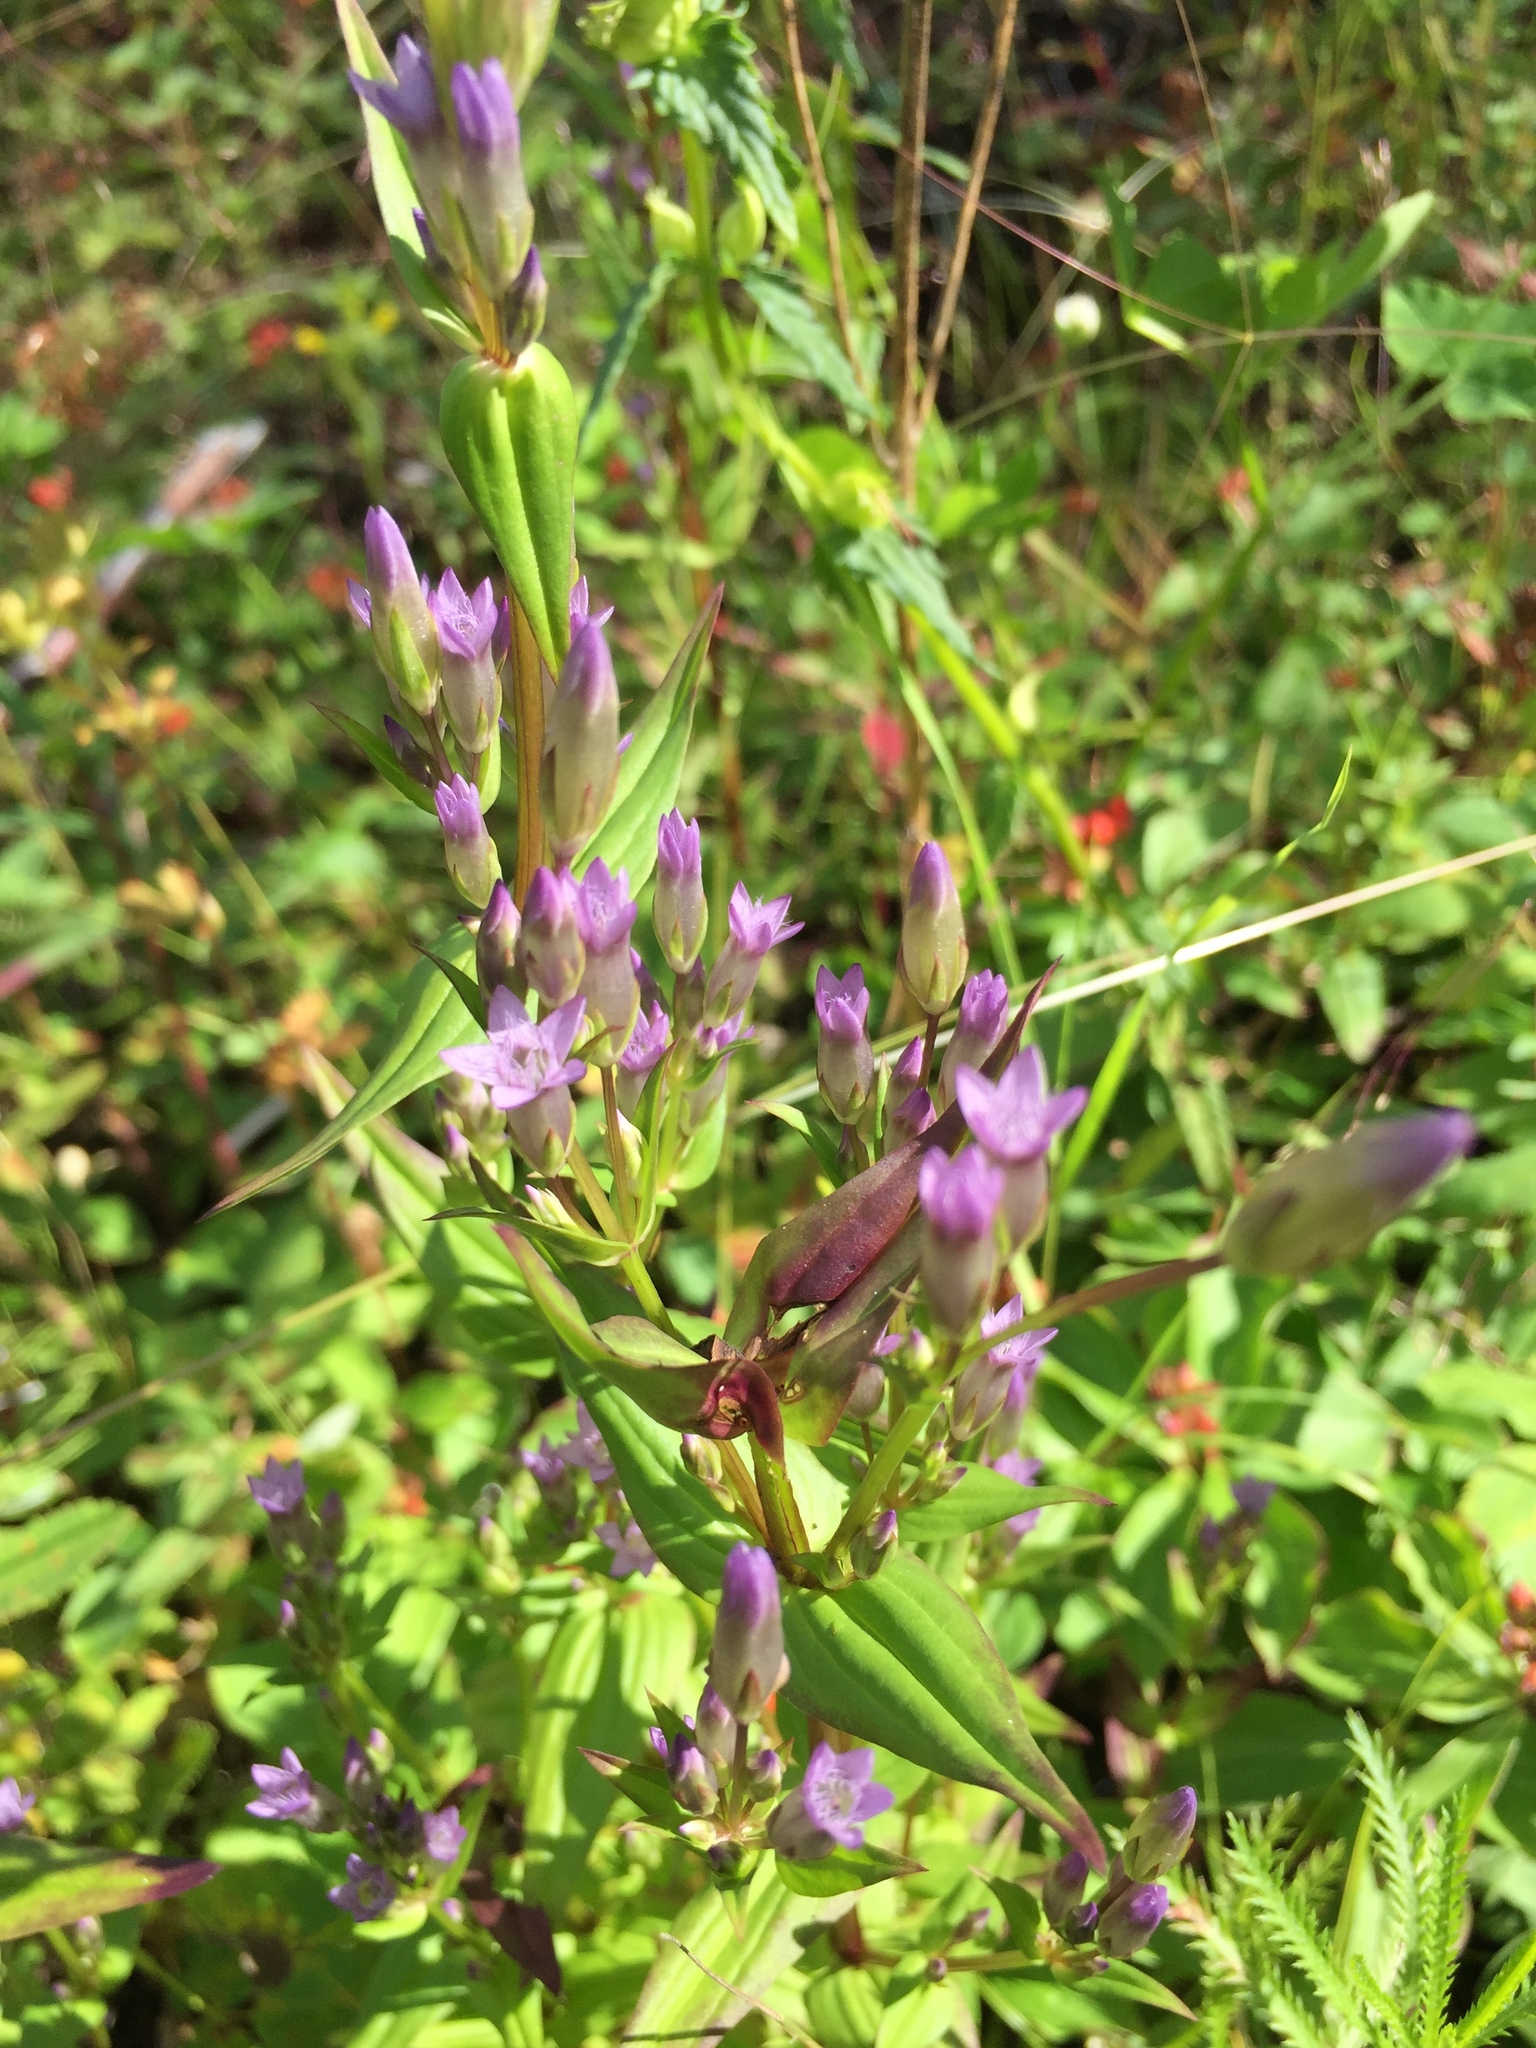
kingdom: Plantae
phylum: Tracheophyta
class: Magnoliopsida
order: Gentianales
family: Gentianaceae
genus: Gentianella
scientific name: Gentianella amarella
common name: Autumn gentian
